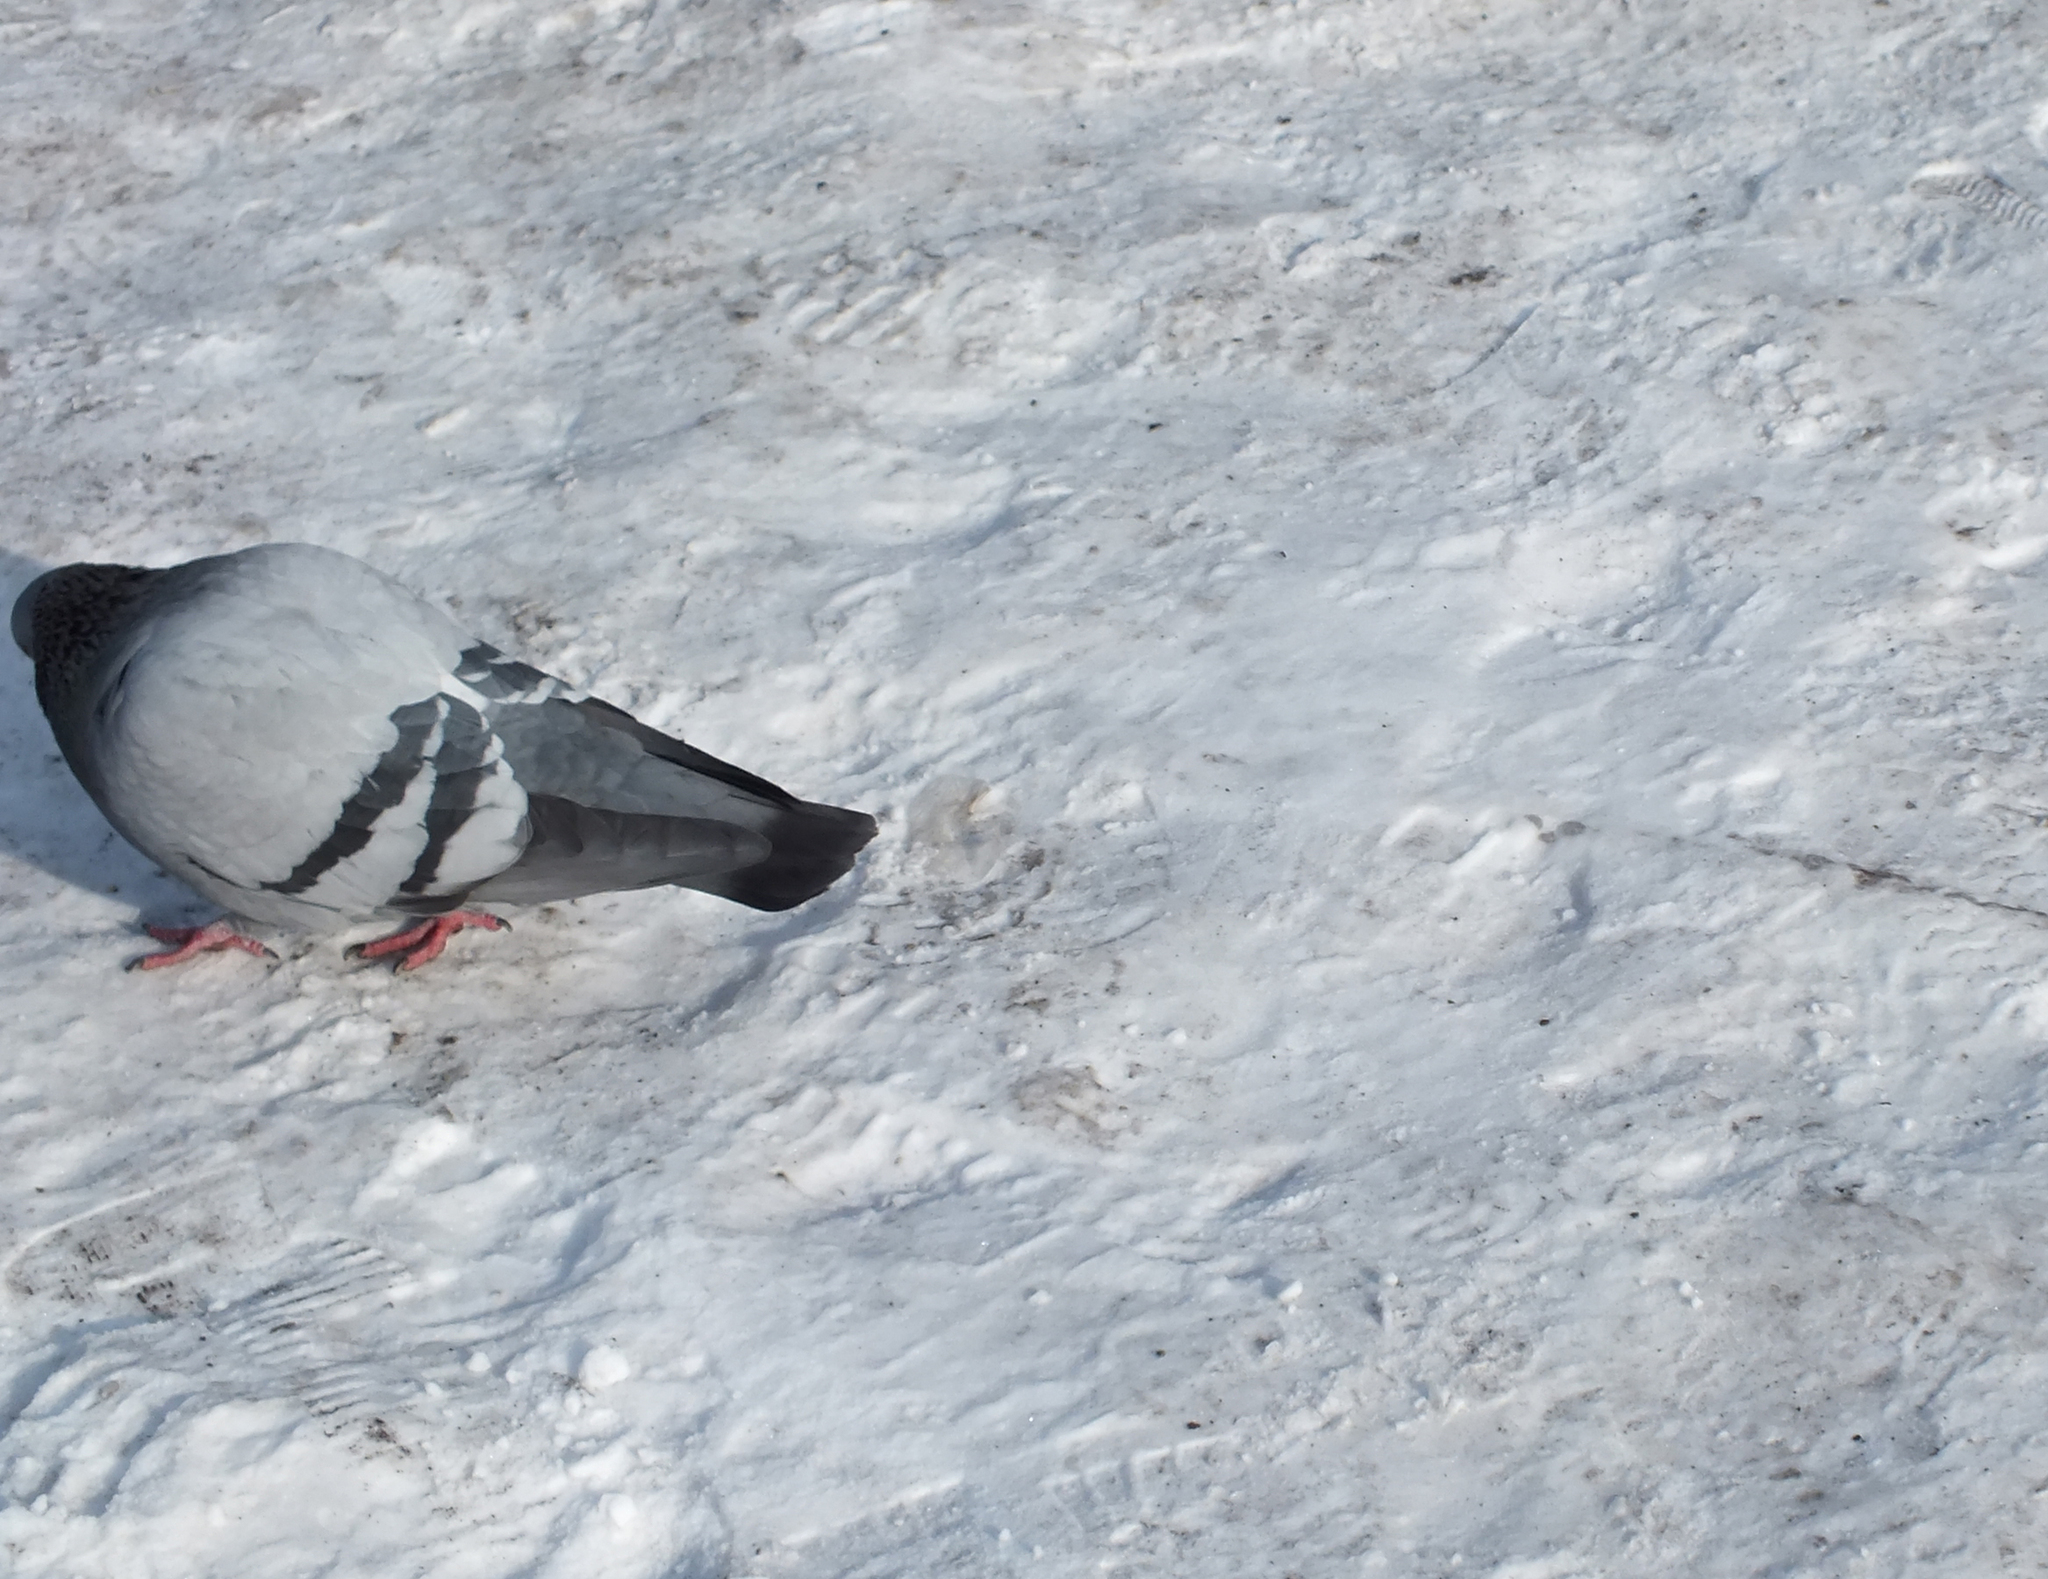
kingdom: Animalia
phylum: Chordata
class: Aves
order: Columbiformes
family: Columbidae
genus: Columba
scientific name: Columba livia
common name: Rock pigeon
